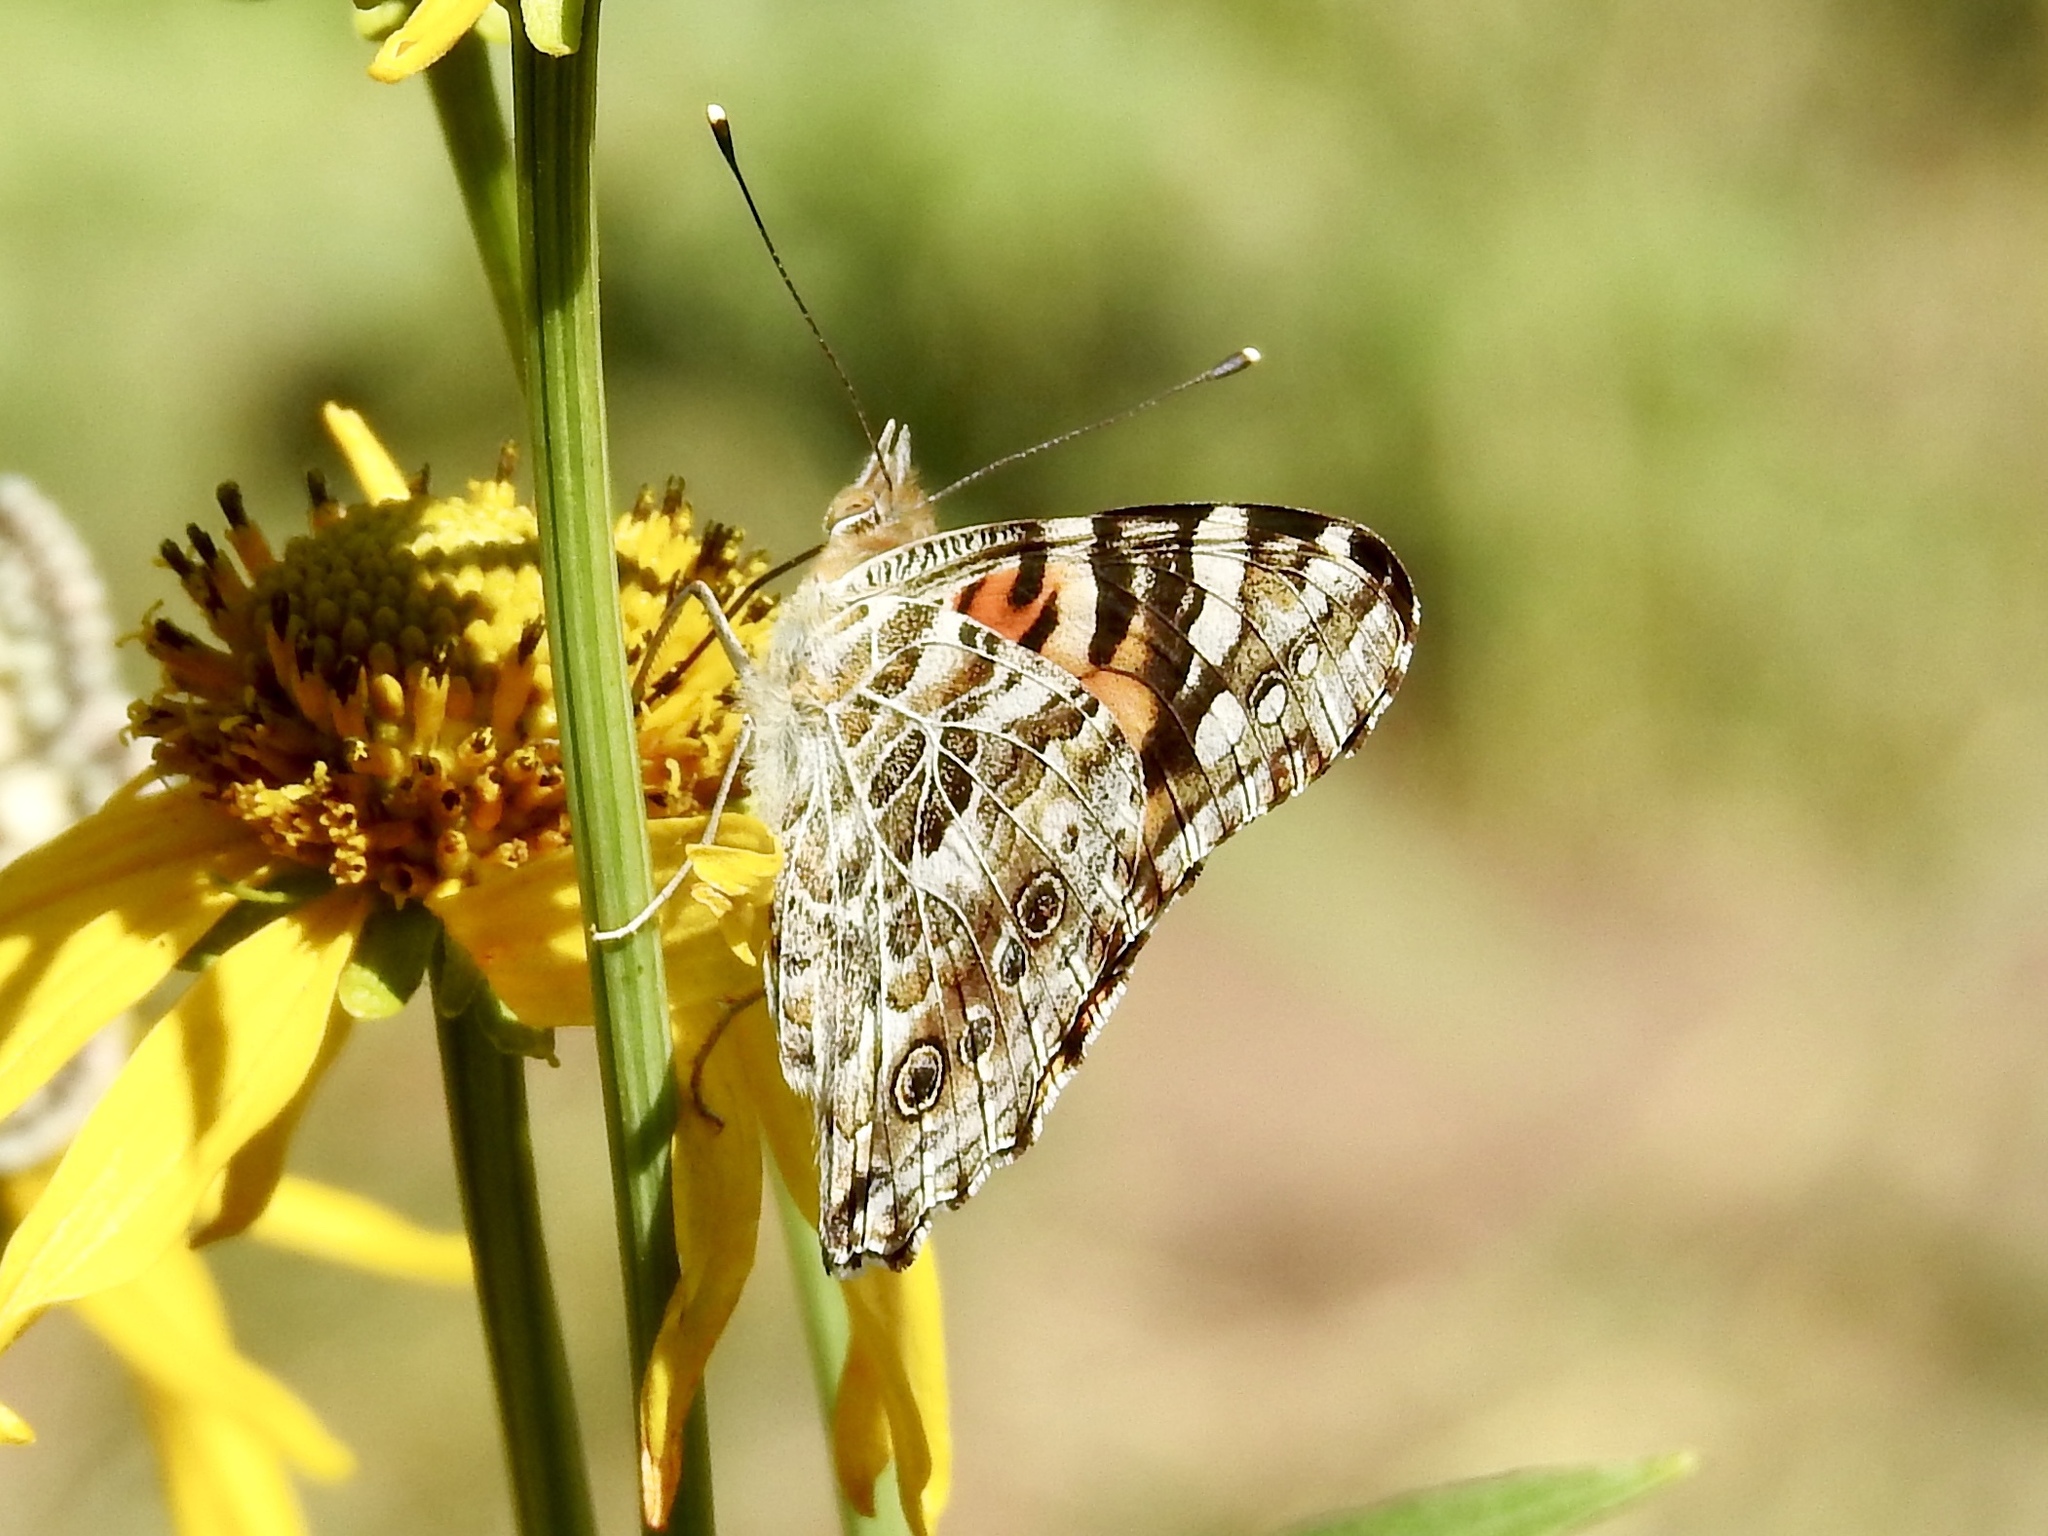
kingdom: Animalia
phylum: Arthropoda
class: Insecta
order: Lepidoptera
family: Nymphalidae
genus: Vanessa
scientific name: Vanessa cardui
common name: Painted lady
